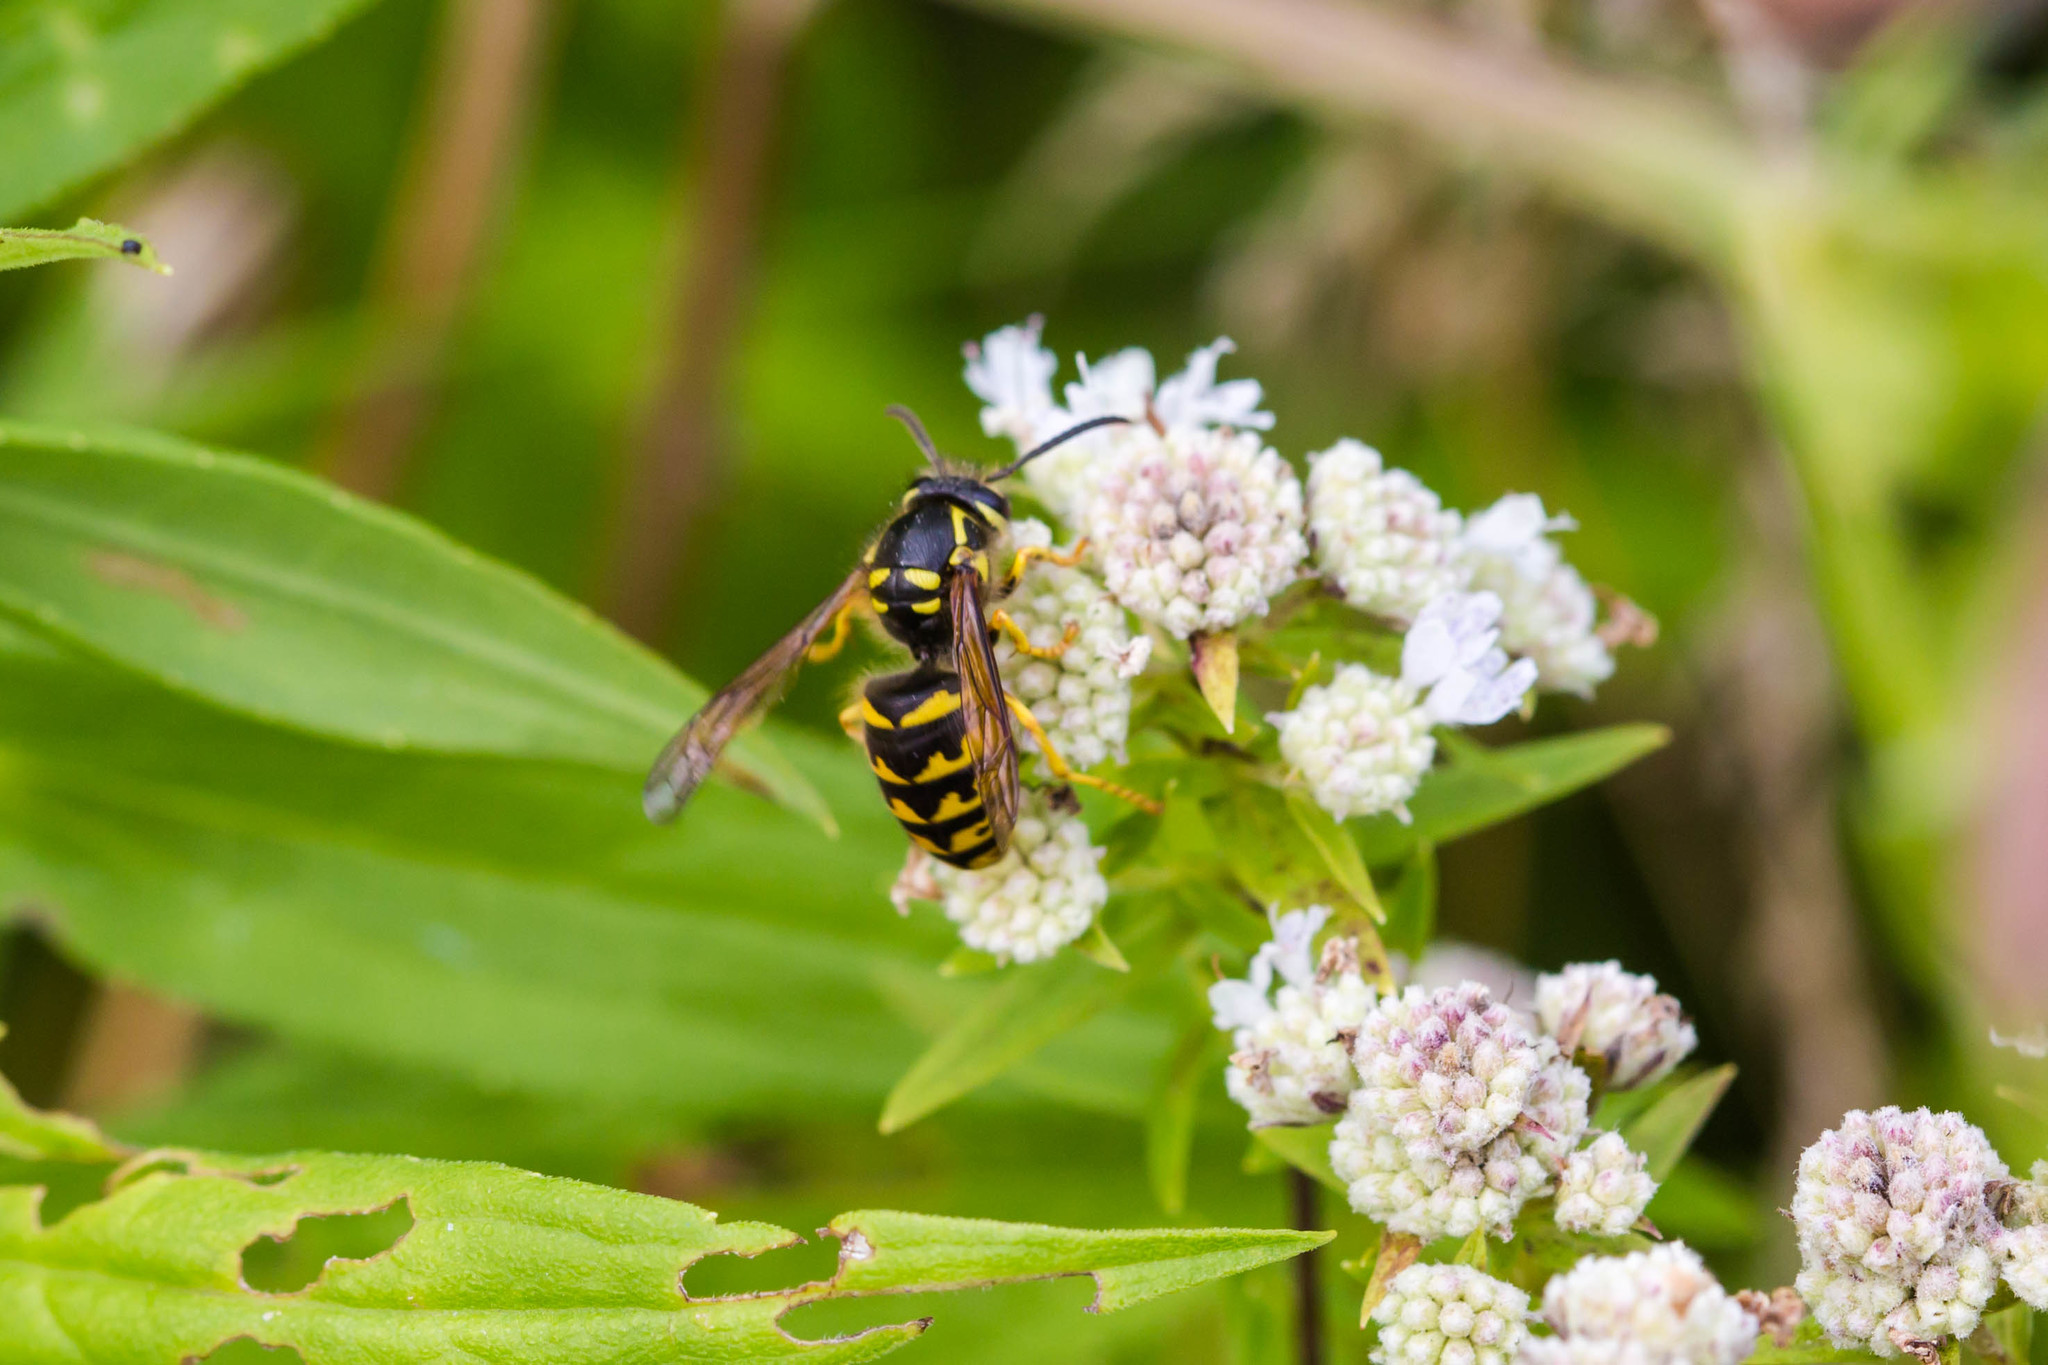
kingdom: Animalia
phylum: Arthropoda
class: Insecta
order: Hymenoptera
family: Vespidae
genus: Dolichovespula
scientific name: Dolichovespula arenaria
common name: Aerial yellowjacket
